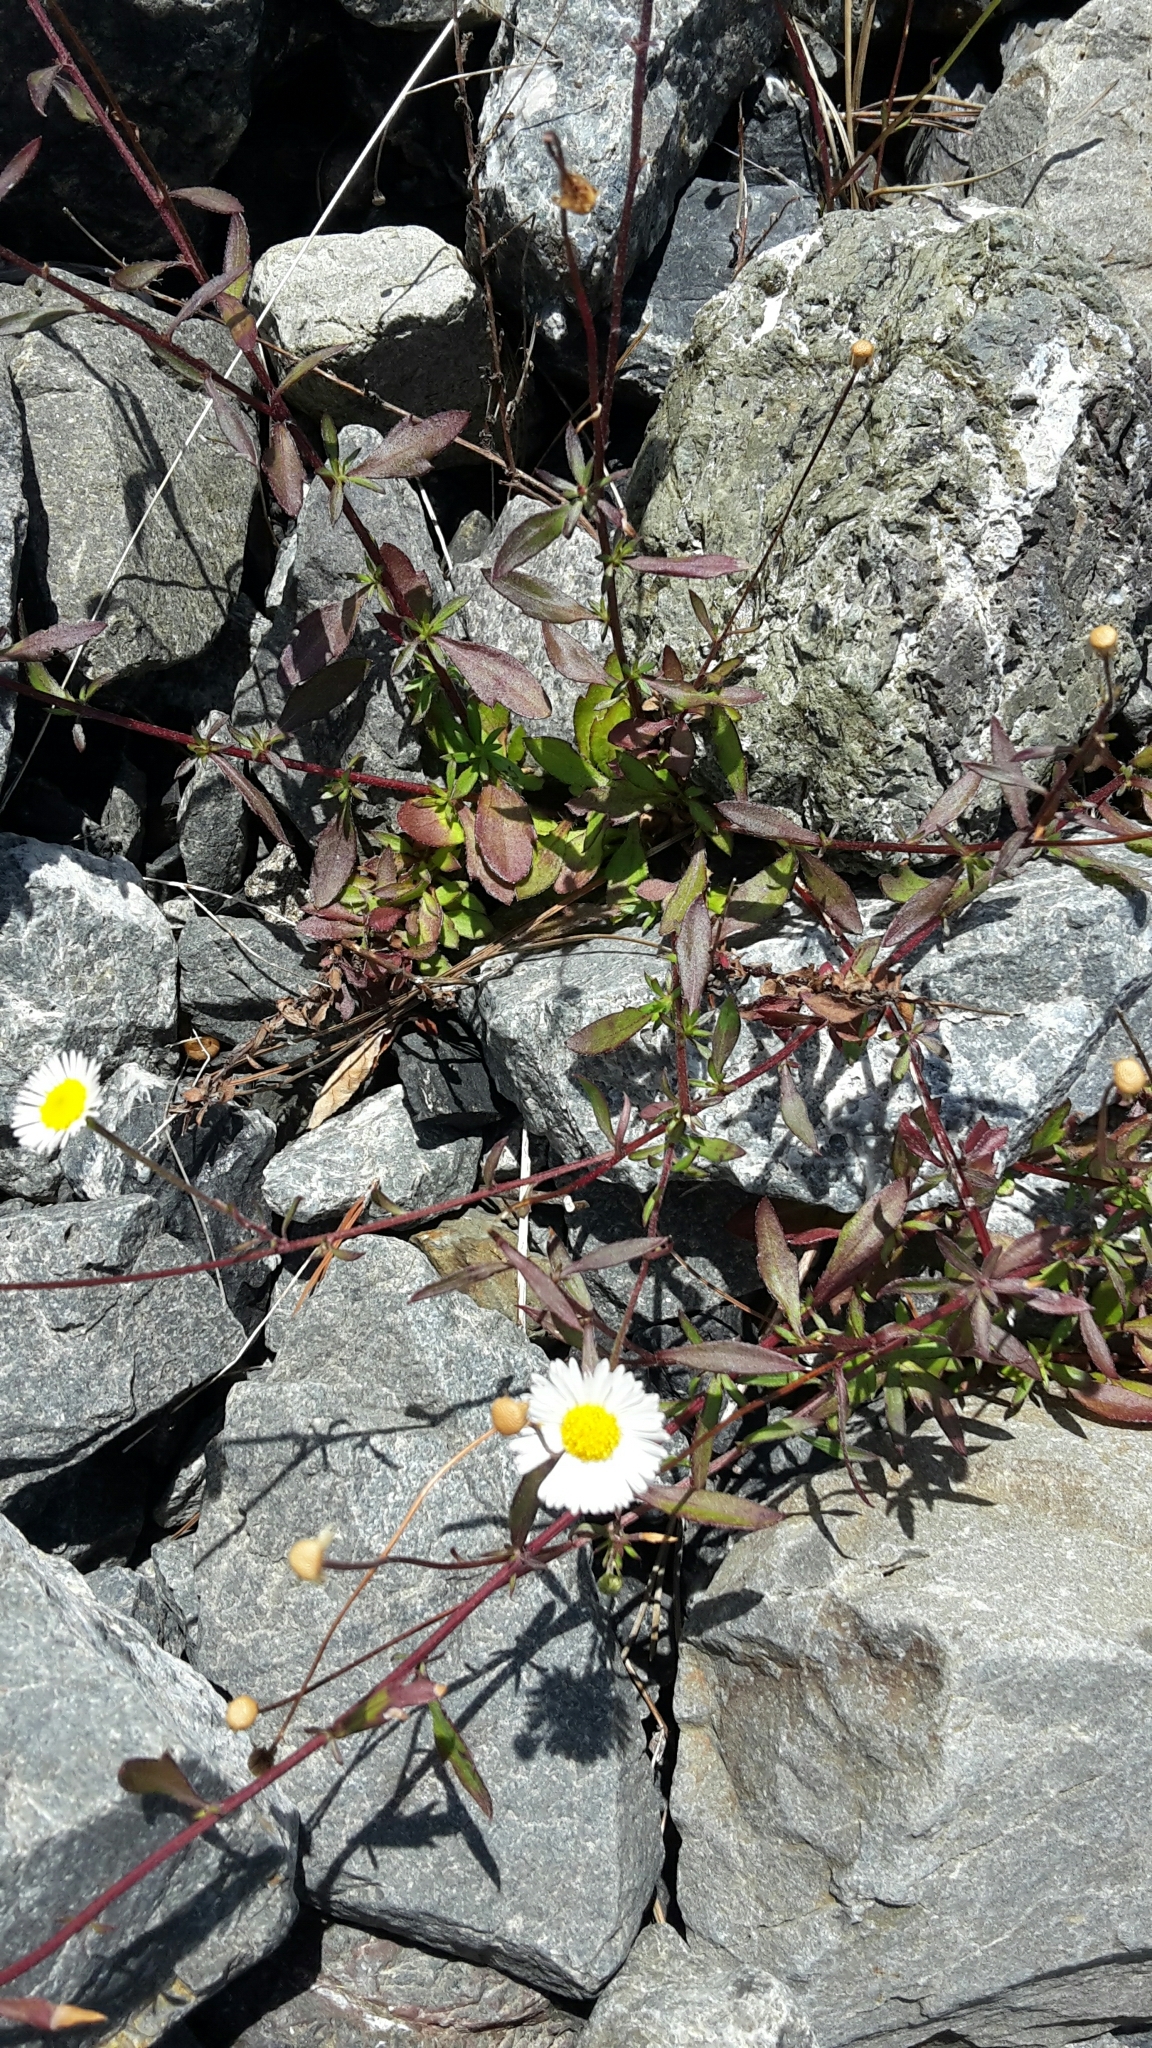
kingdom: Plantae
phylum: Tracheophyta
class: Magnoliopsida
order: Asterales
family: Asteraceae
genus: Erigeron
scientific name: Erigeron karvinskianus
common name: Mexican fleabane
